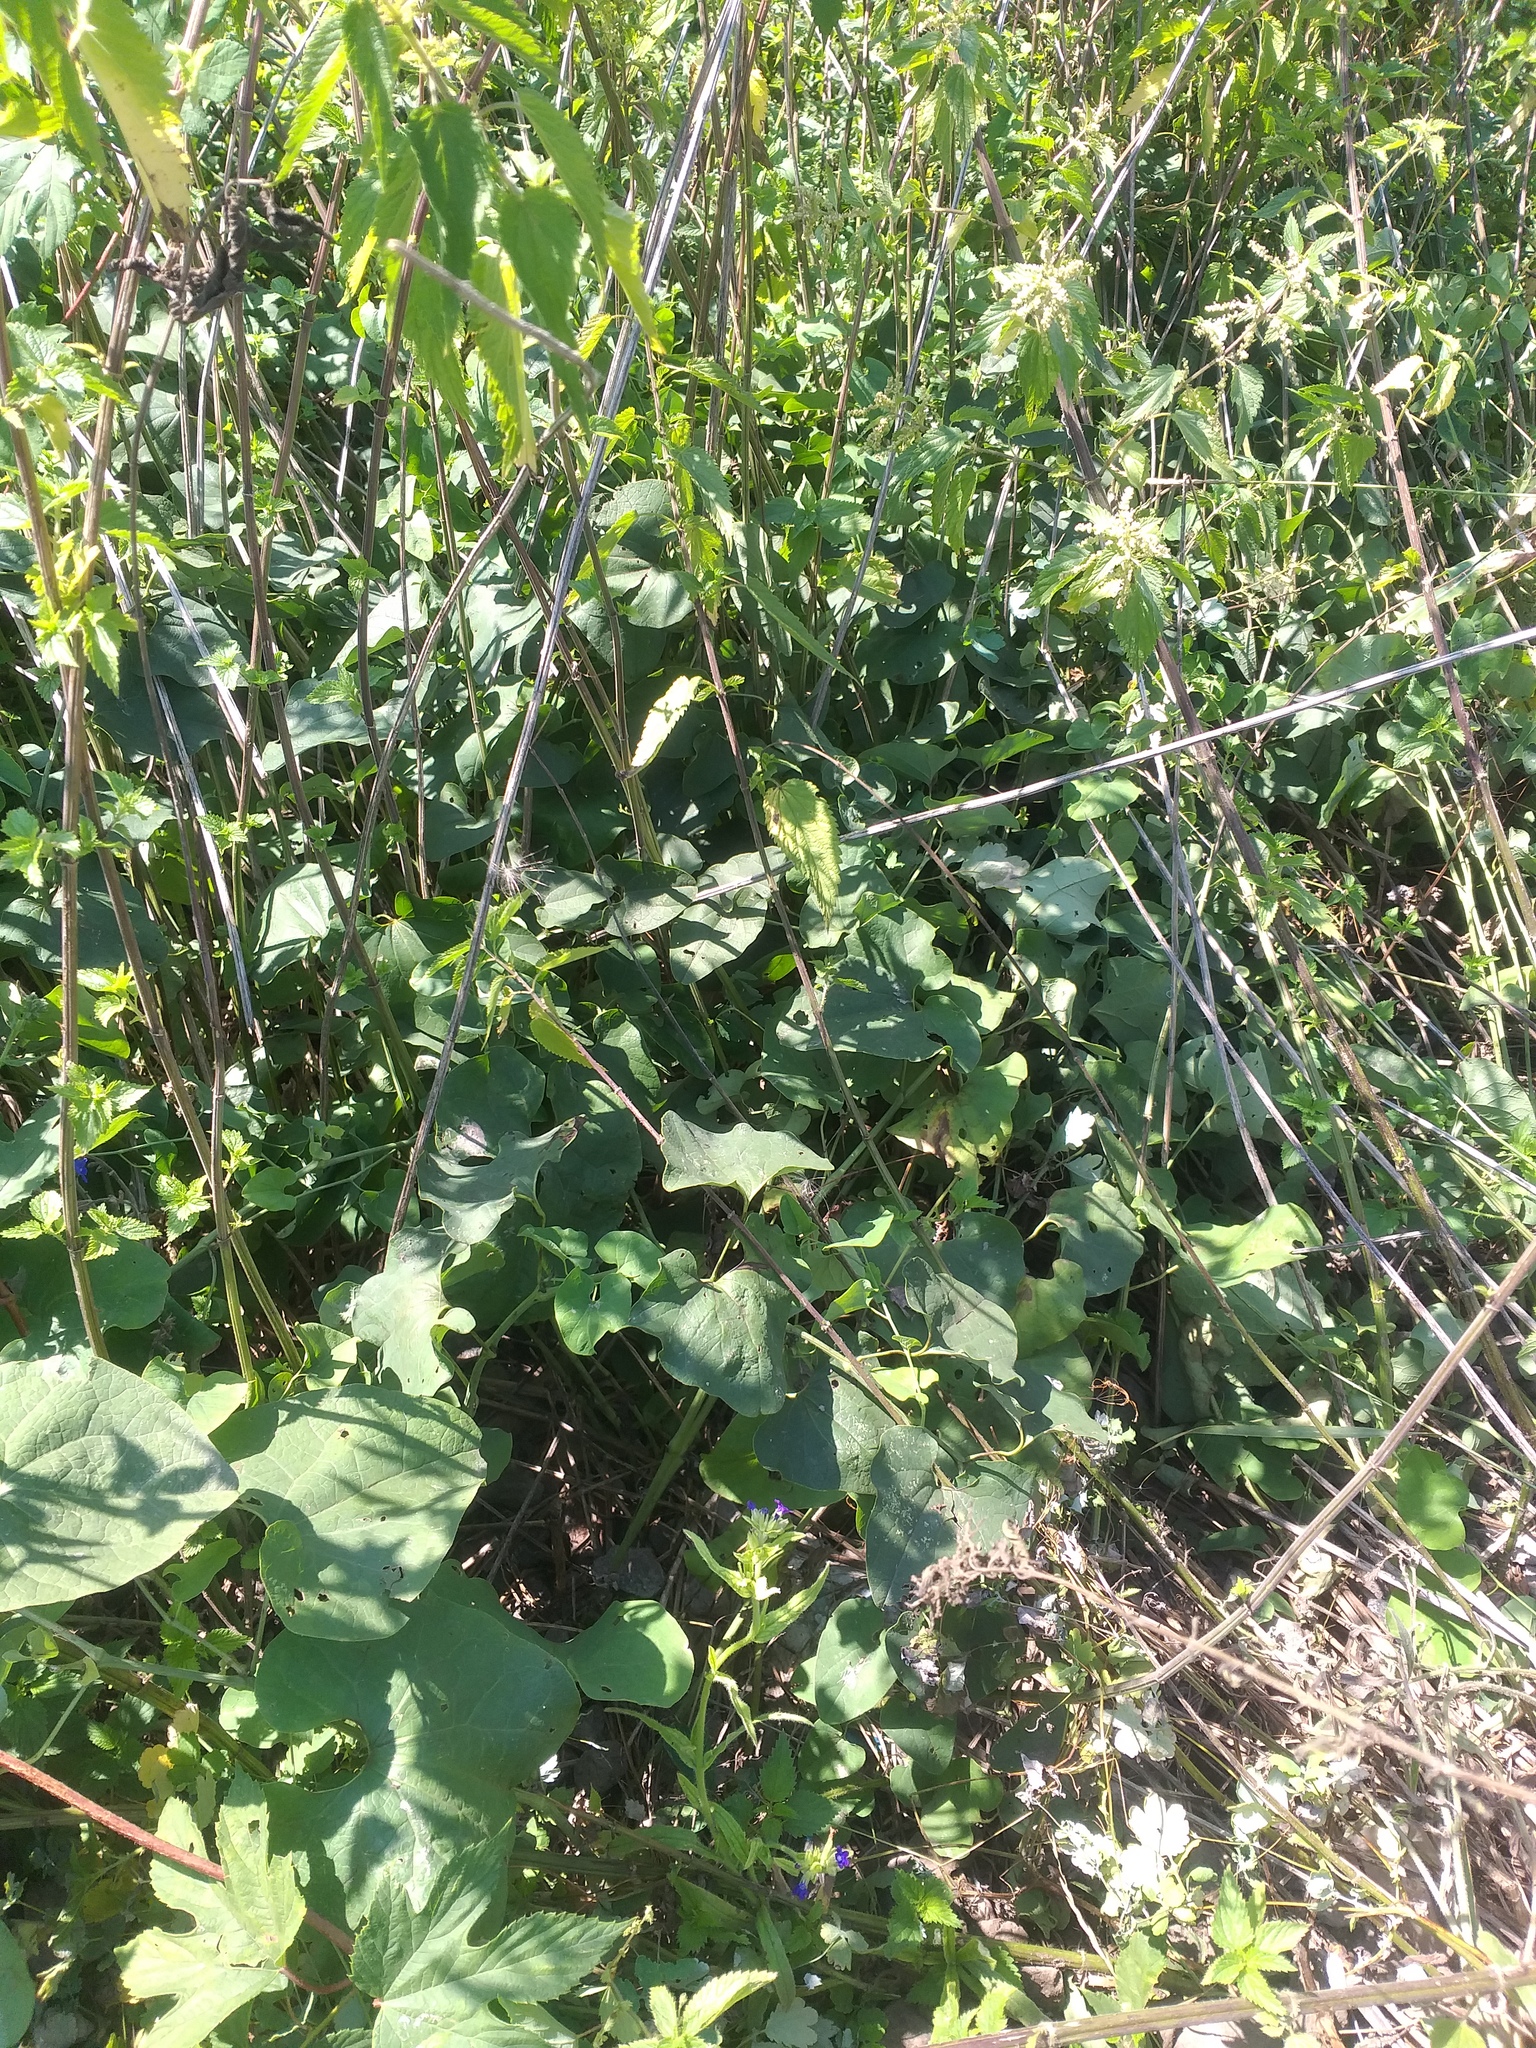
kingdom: Plantae
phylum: Tracheophyta
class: Magnoliopsida
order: Piperales
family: Aristolochiaceae
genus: Aristolochia
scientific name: Aristolochia clematitis
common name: Birthwort
